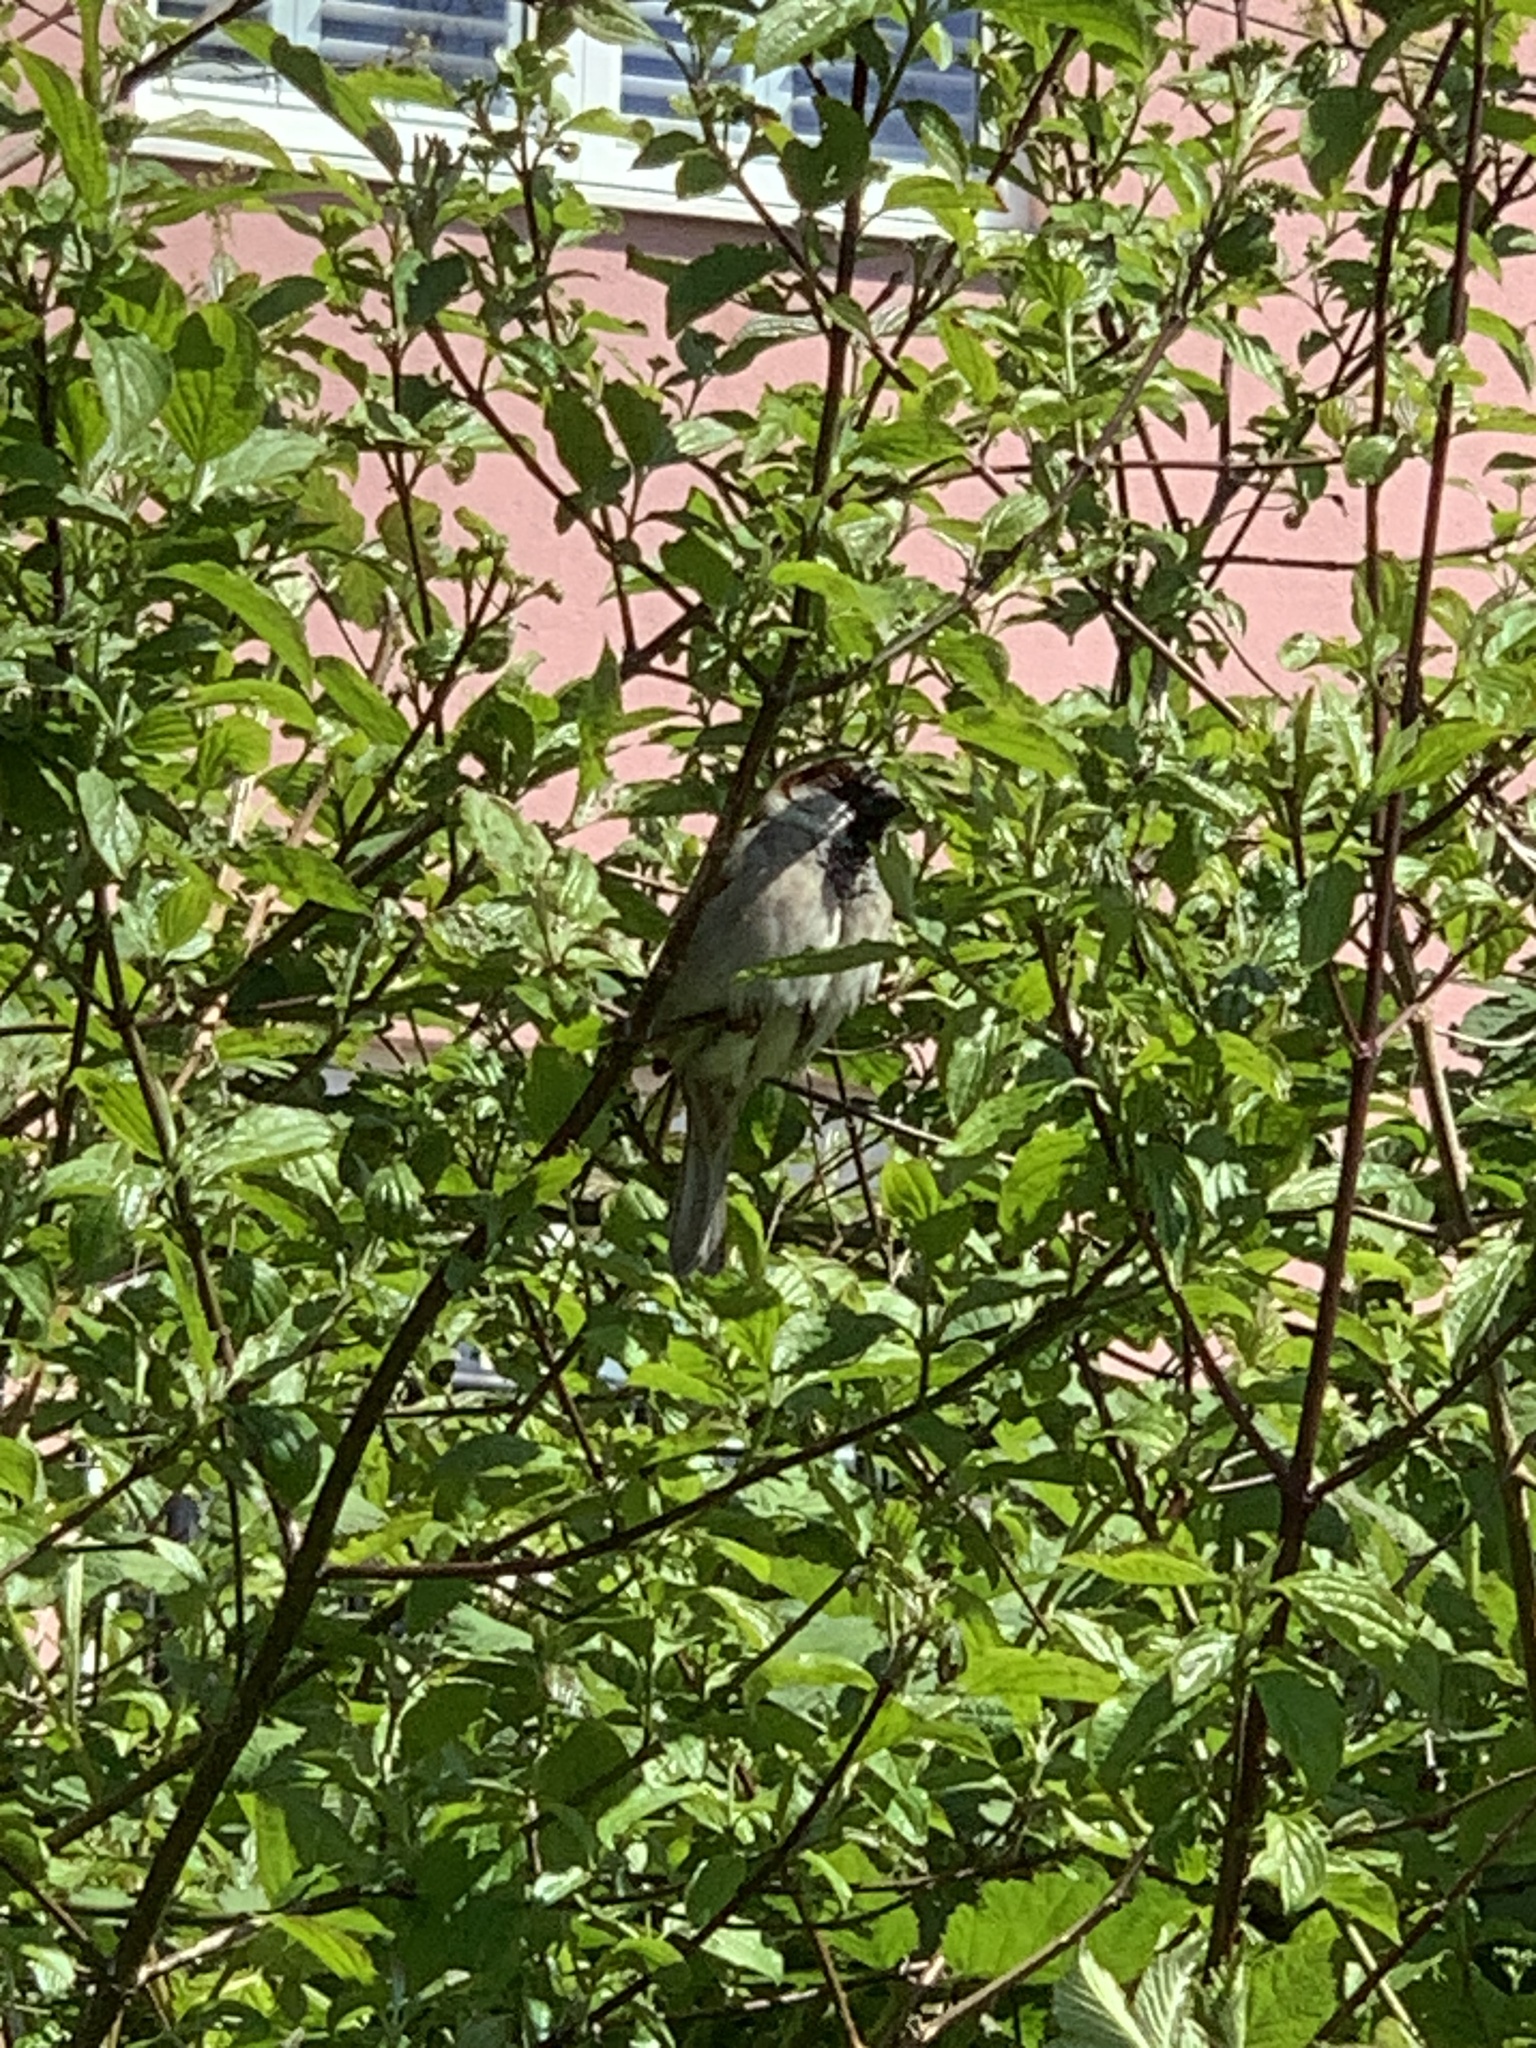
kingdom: Animalia
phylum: Chordata
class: Aves
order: Passeriformes
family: Passeridae
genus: Passer
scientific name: Passer domesticus
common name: House sparrow
